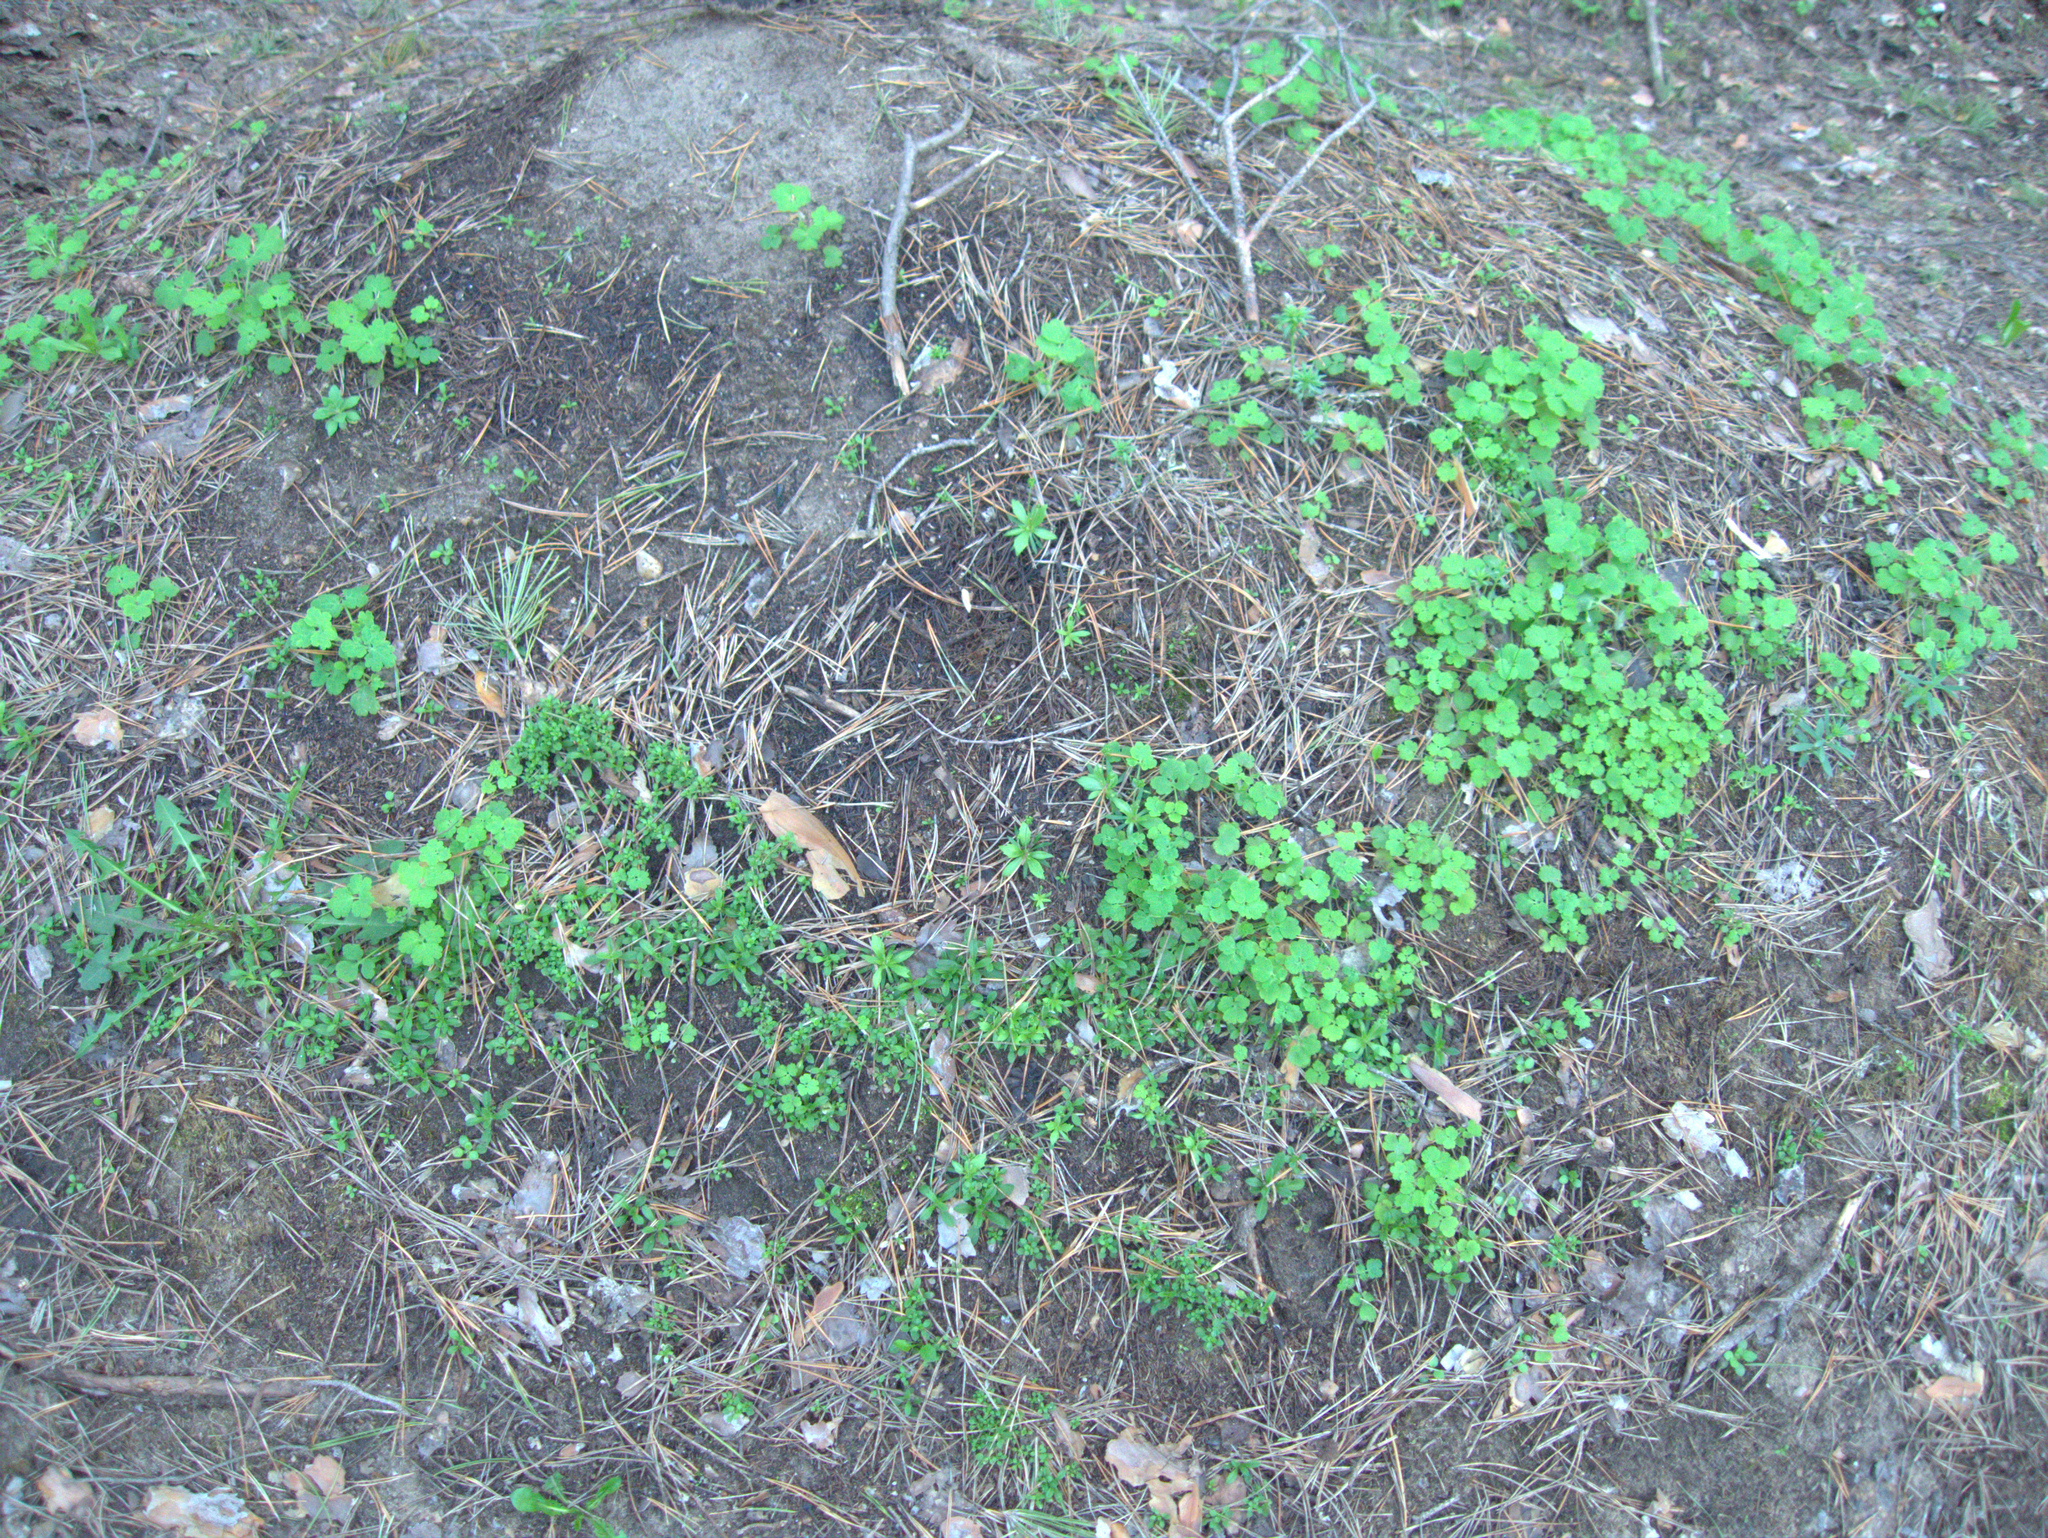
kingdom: Plantae
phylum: Tracheophyta
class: Magnoliopsida
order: Ranunculales
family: Papaveraceae
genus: Chelidonium
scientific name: Chelidonium majus
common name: Greater celandine
